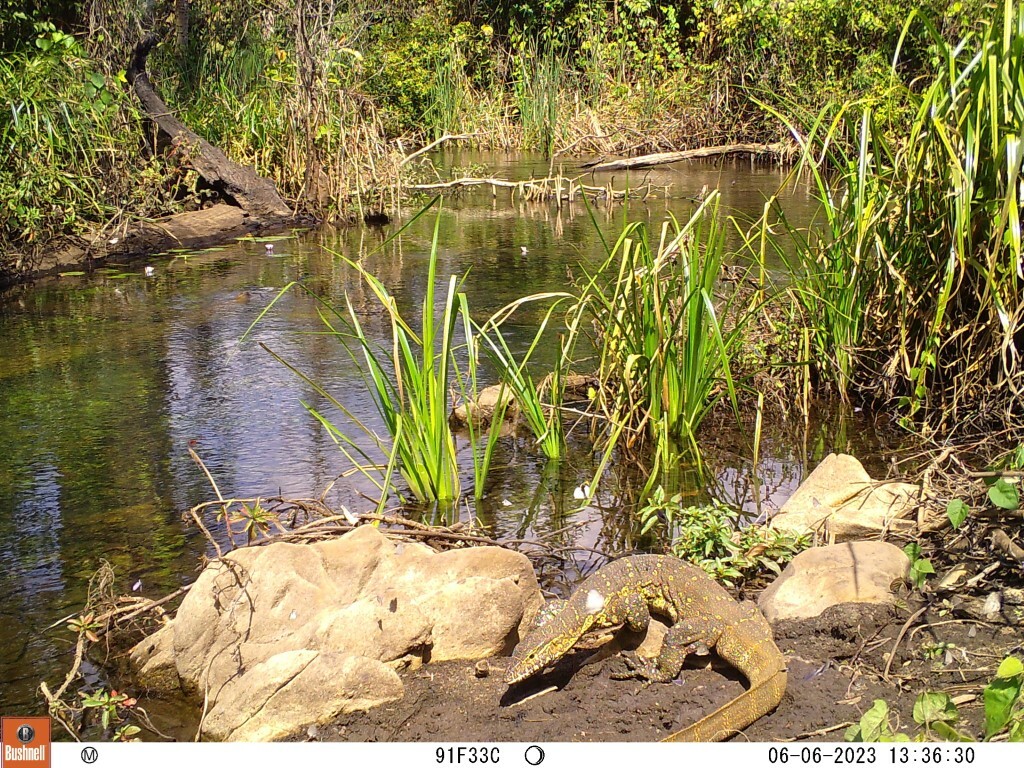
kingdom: Animalia
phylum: Chordata
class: Squamata
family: Varanidae
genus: Varanus
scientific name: Varanus niloticus
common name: Nile monitor
